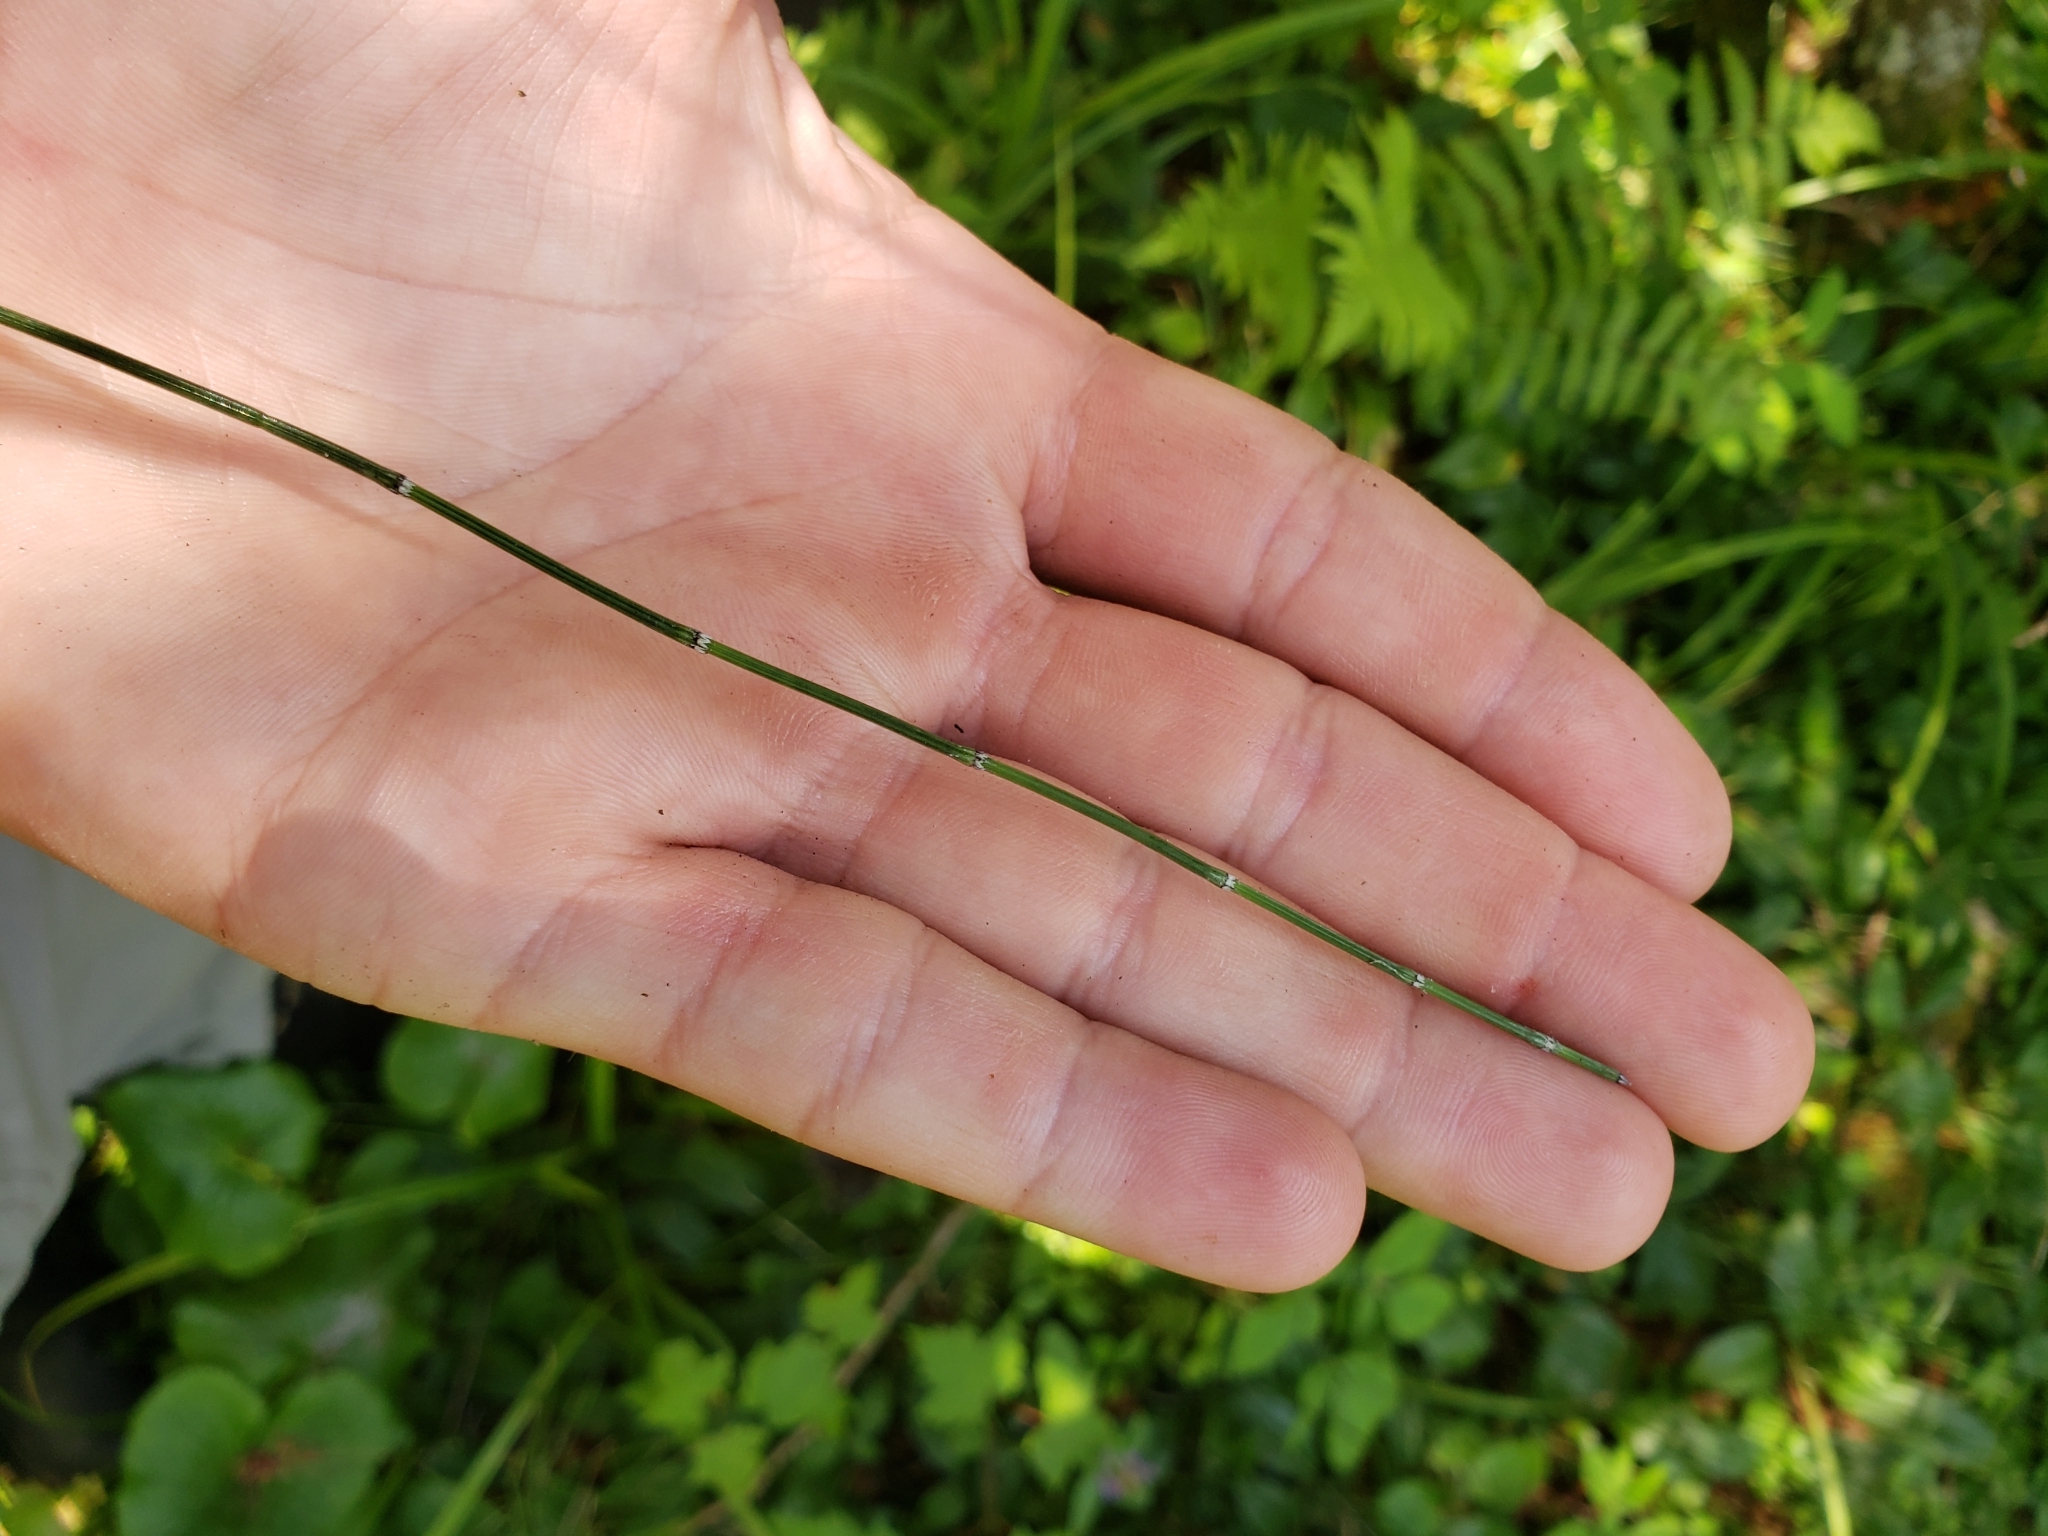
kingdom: Plantae
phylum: Tracheophyta
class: Polypodiopsida
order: Equisetales
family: Equisetaceae
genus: Equisetum
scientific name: Equisetum variegatum
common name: Variegated horsetail
